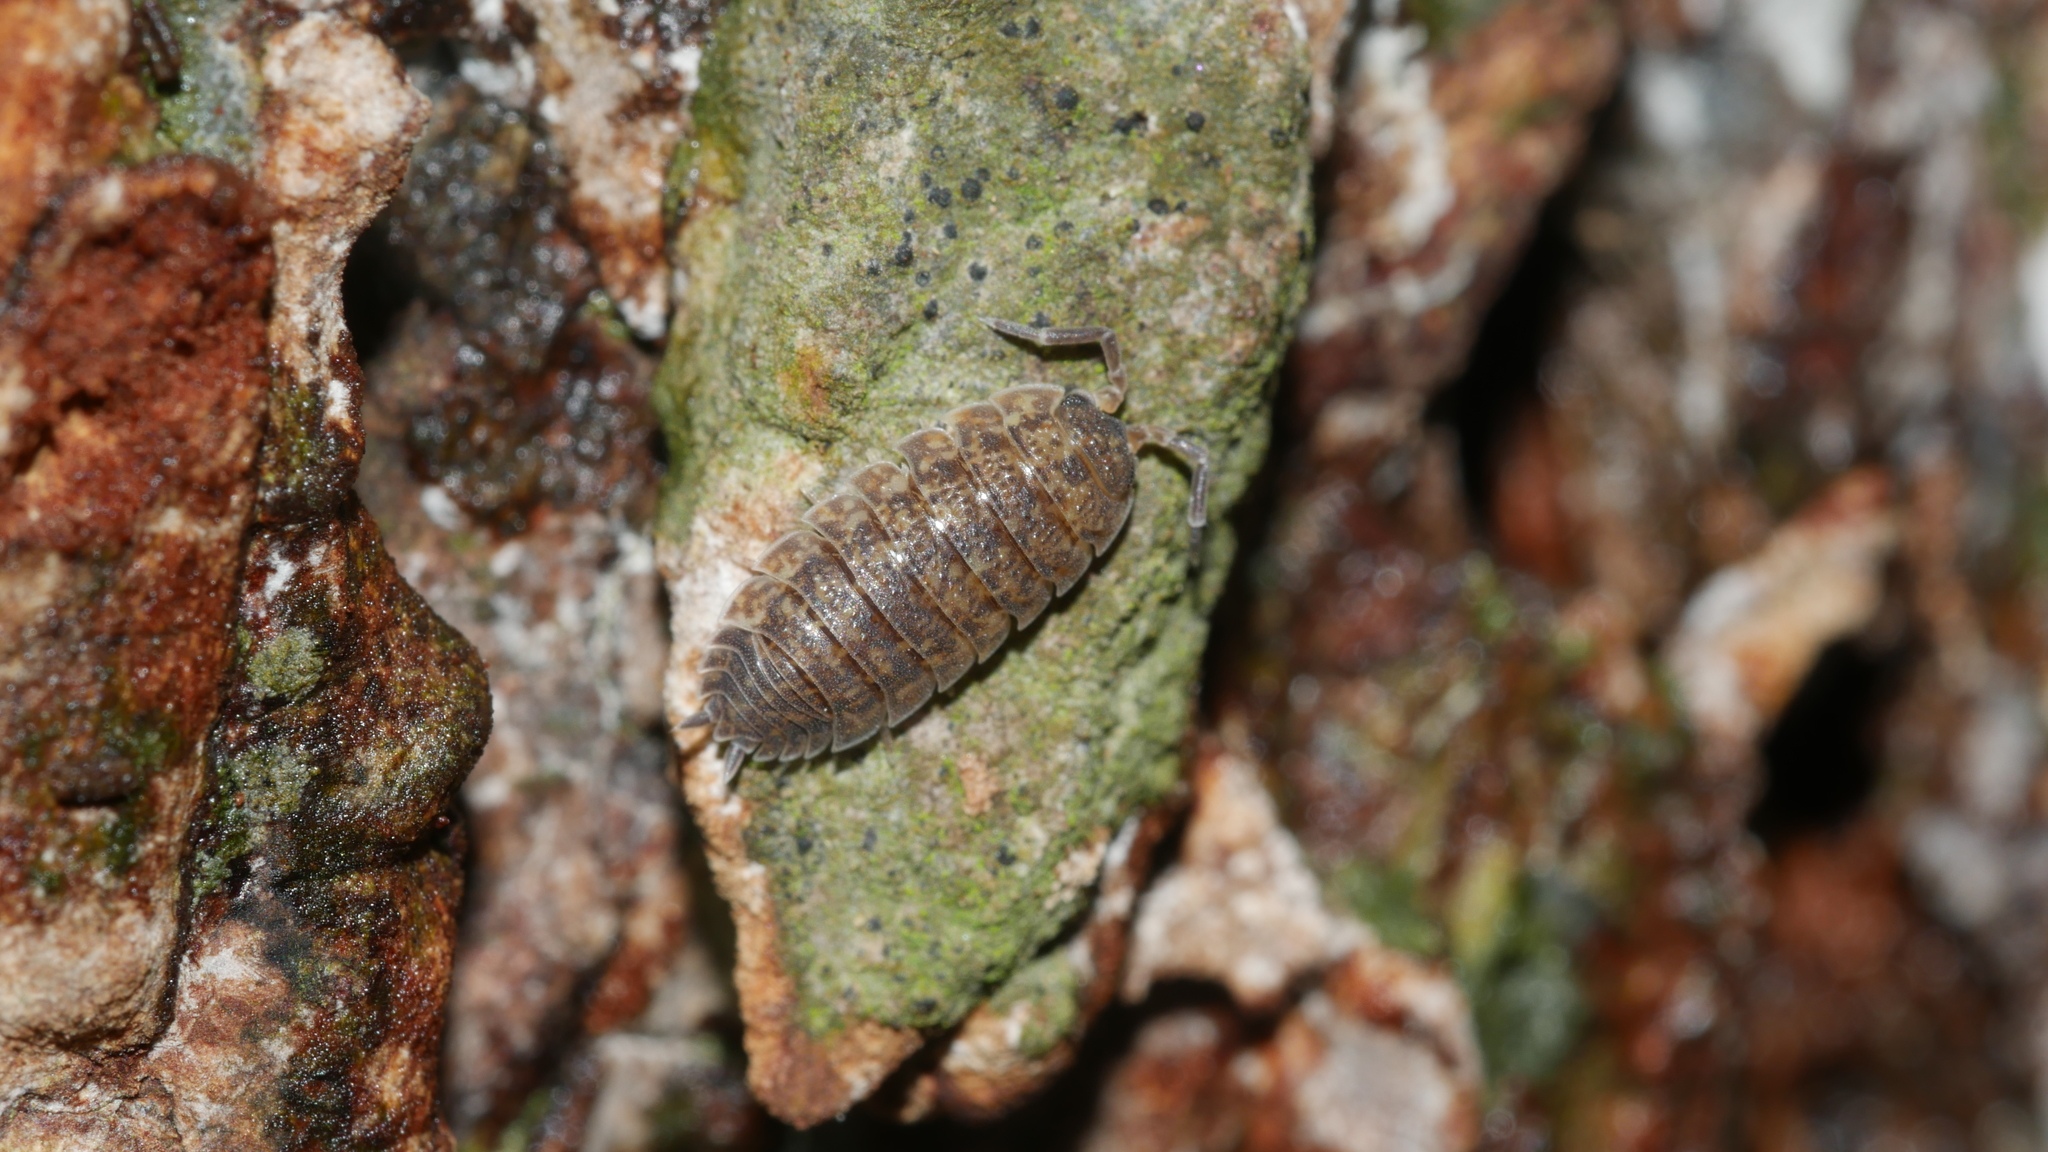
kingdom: Animalia
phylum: Arthropoda
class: Malacostraca
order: Isopoda
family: Porcellionidae
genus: Porcellio
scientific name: Porcellio scaber
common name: Common rough woodlouse
